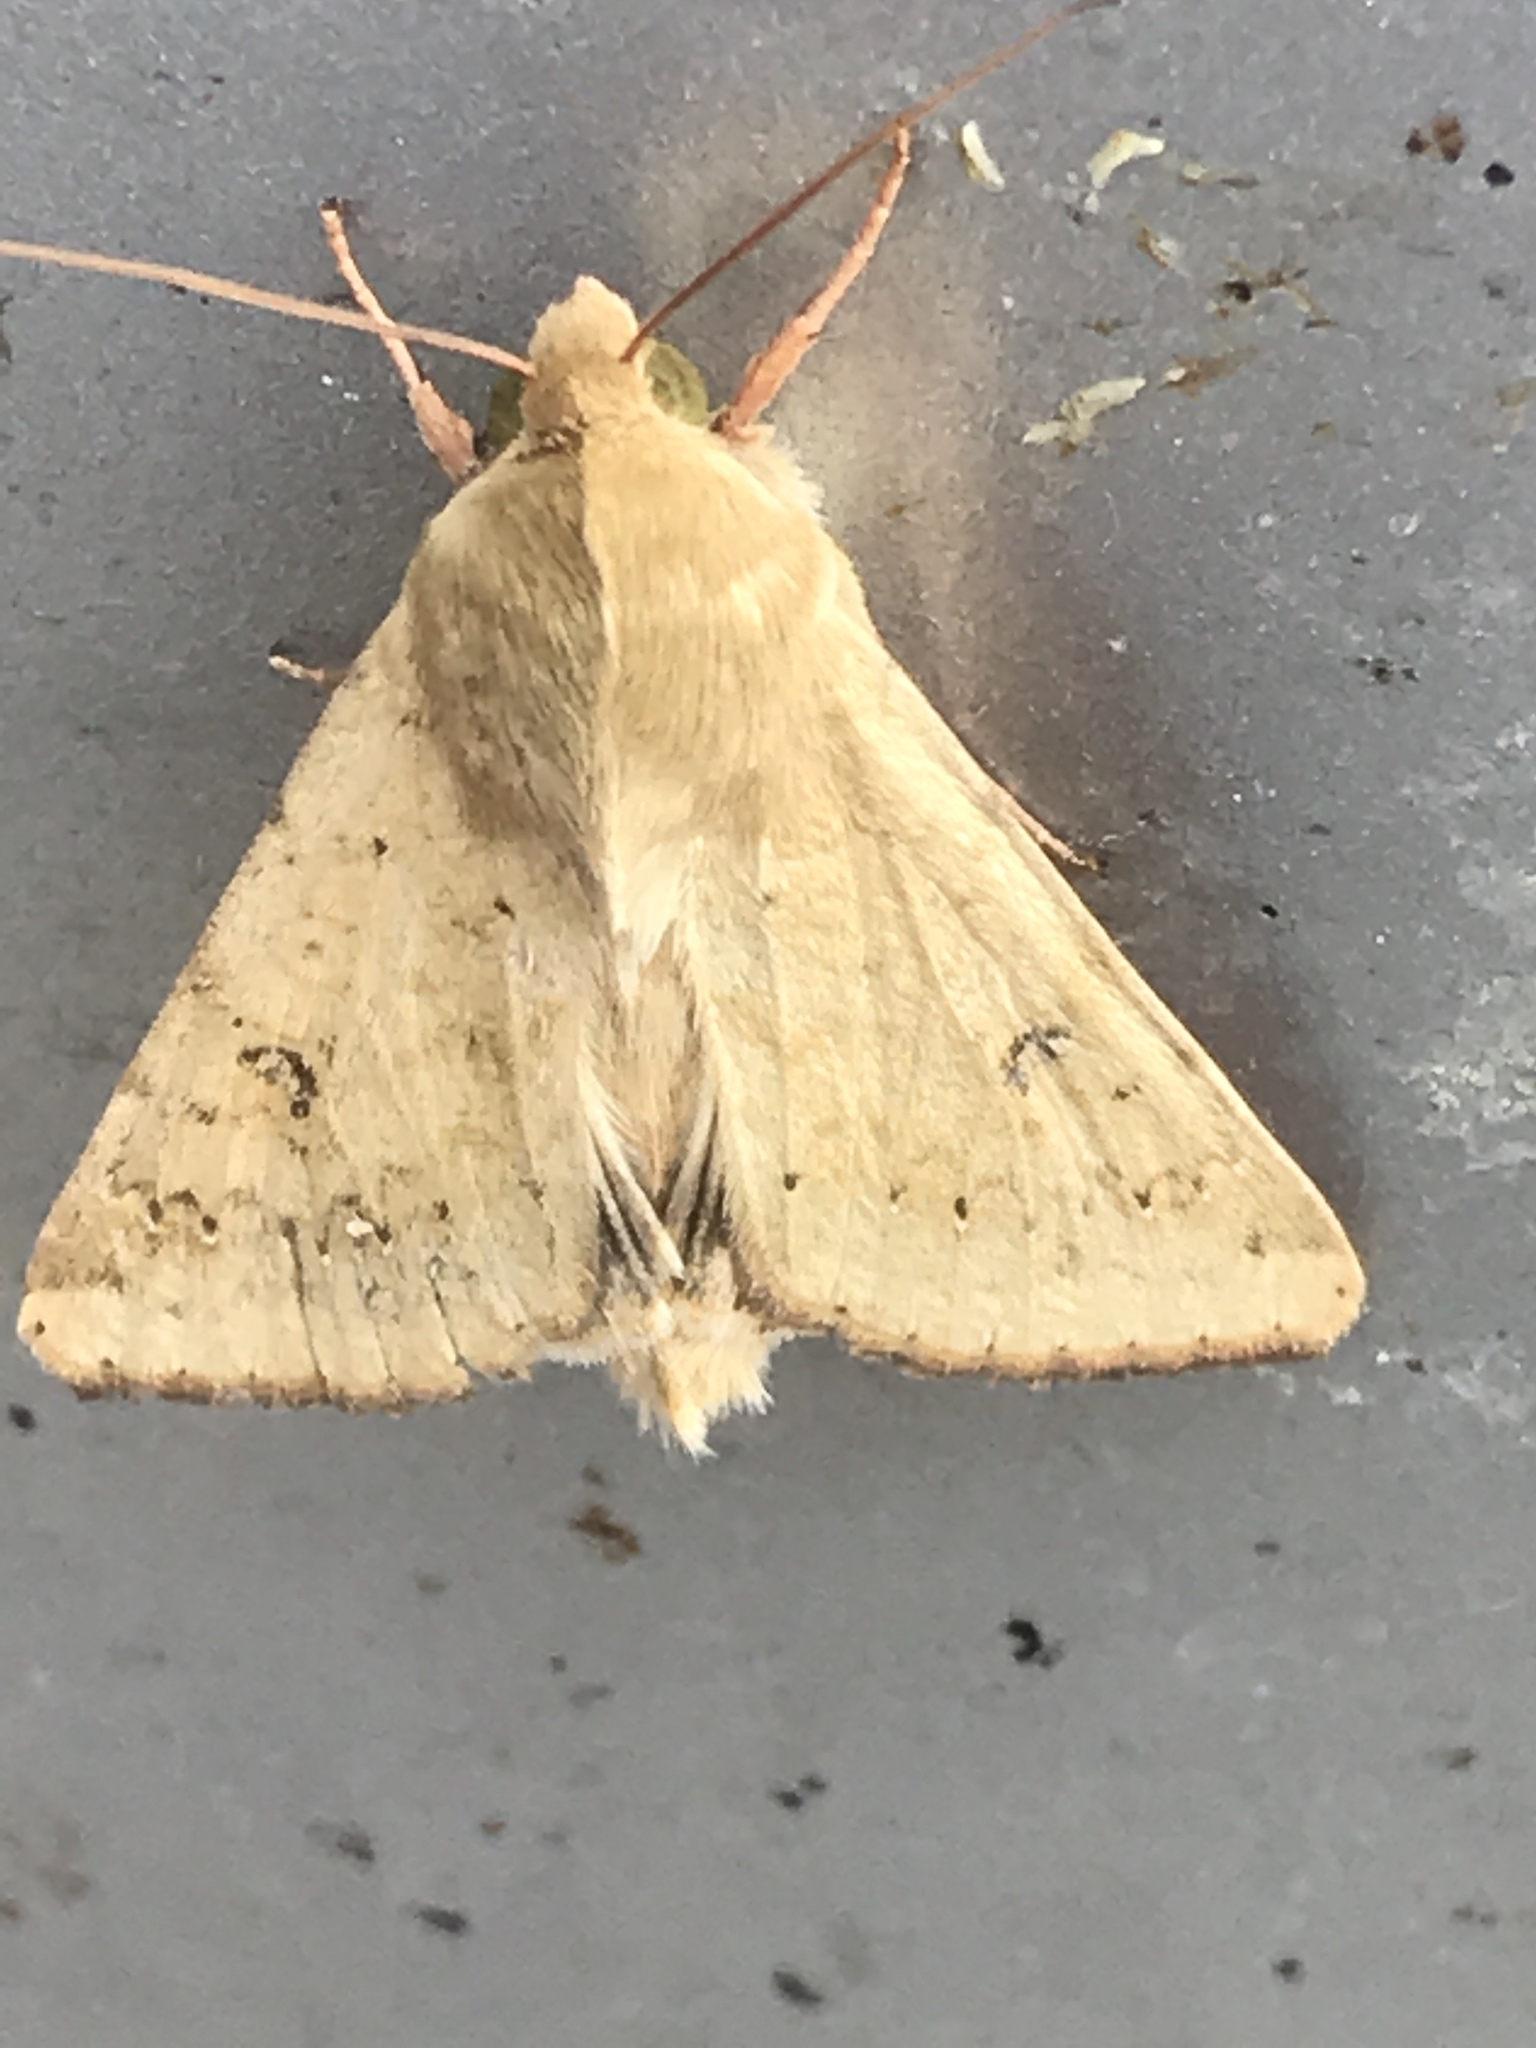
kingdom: Animalia
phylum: Arthropoda
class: Insecta
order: Lepidoptera
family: Noctuidae
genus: Helicoverpa
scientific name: Helicoverpa zea
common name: Bollworm
